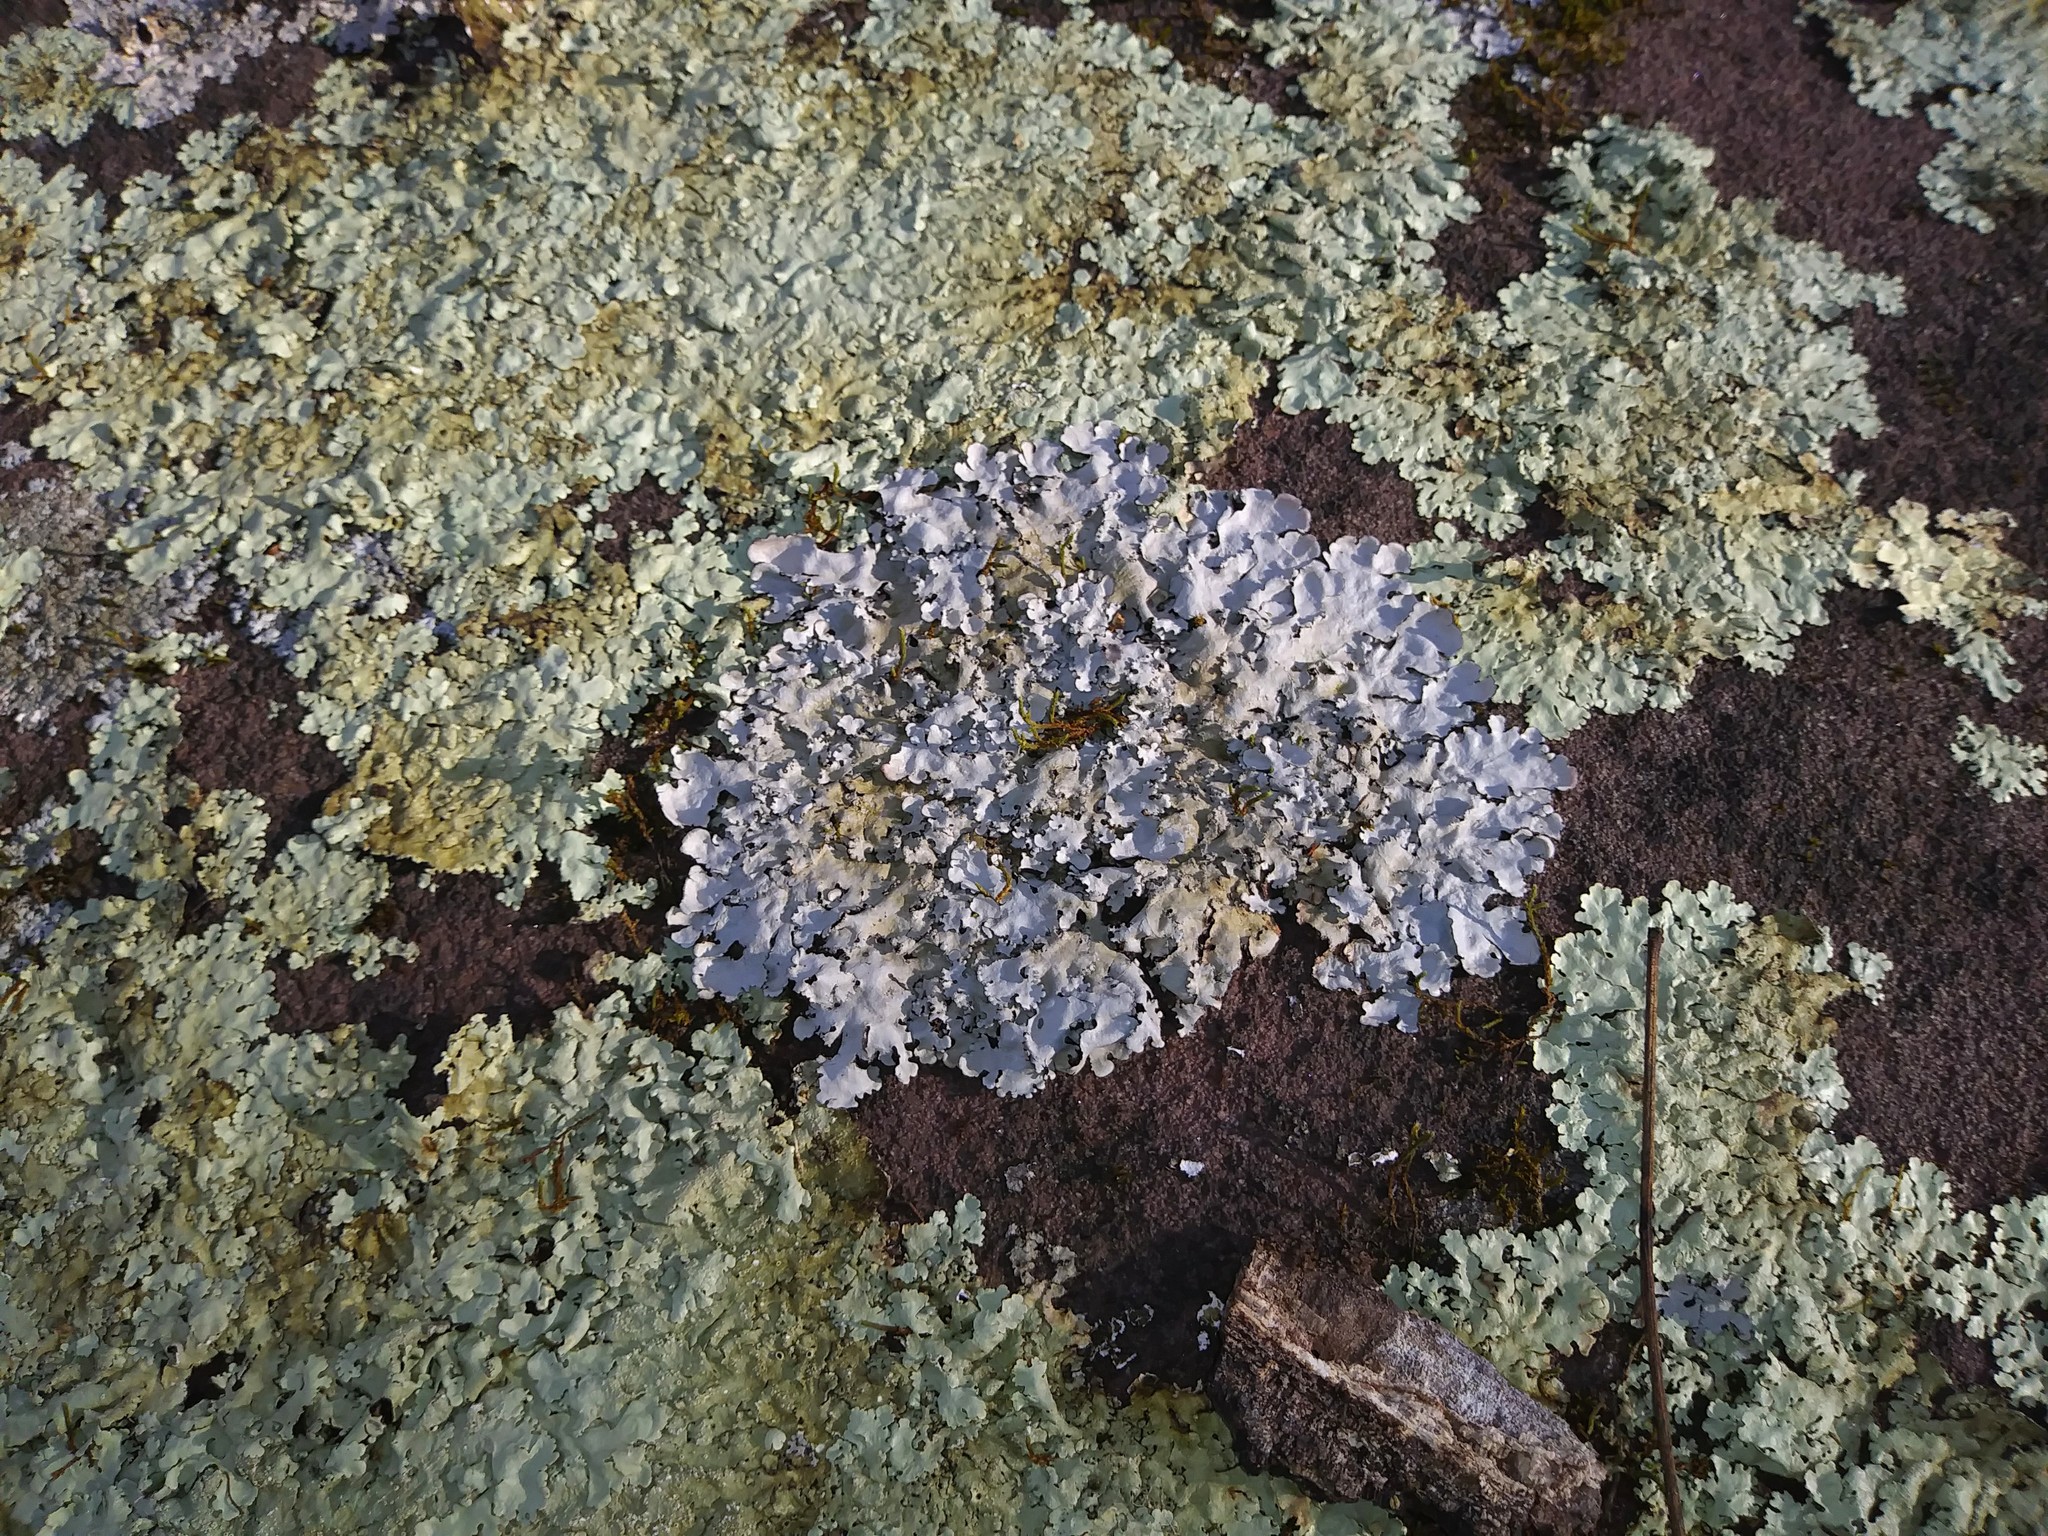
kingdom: Fungi
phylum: Ascomycota
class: Lecanoromycetes
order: Lecanorales
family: Parmeliaceae
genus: Myelochroa
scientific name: Myelochroa aurulenta
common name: Powdery axil-bristle lichen
